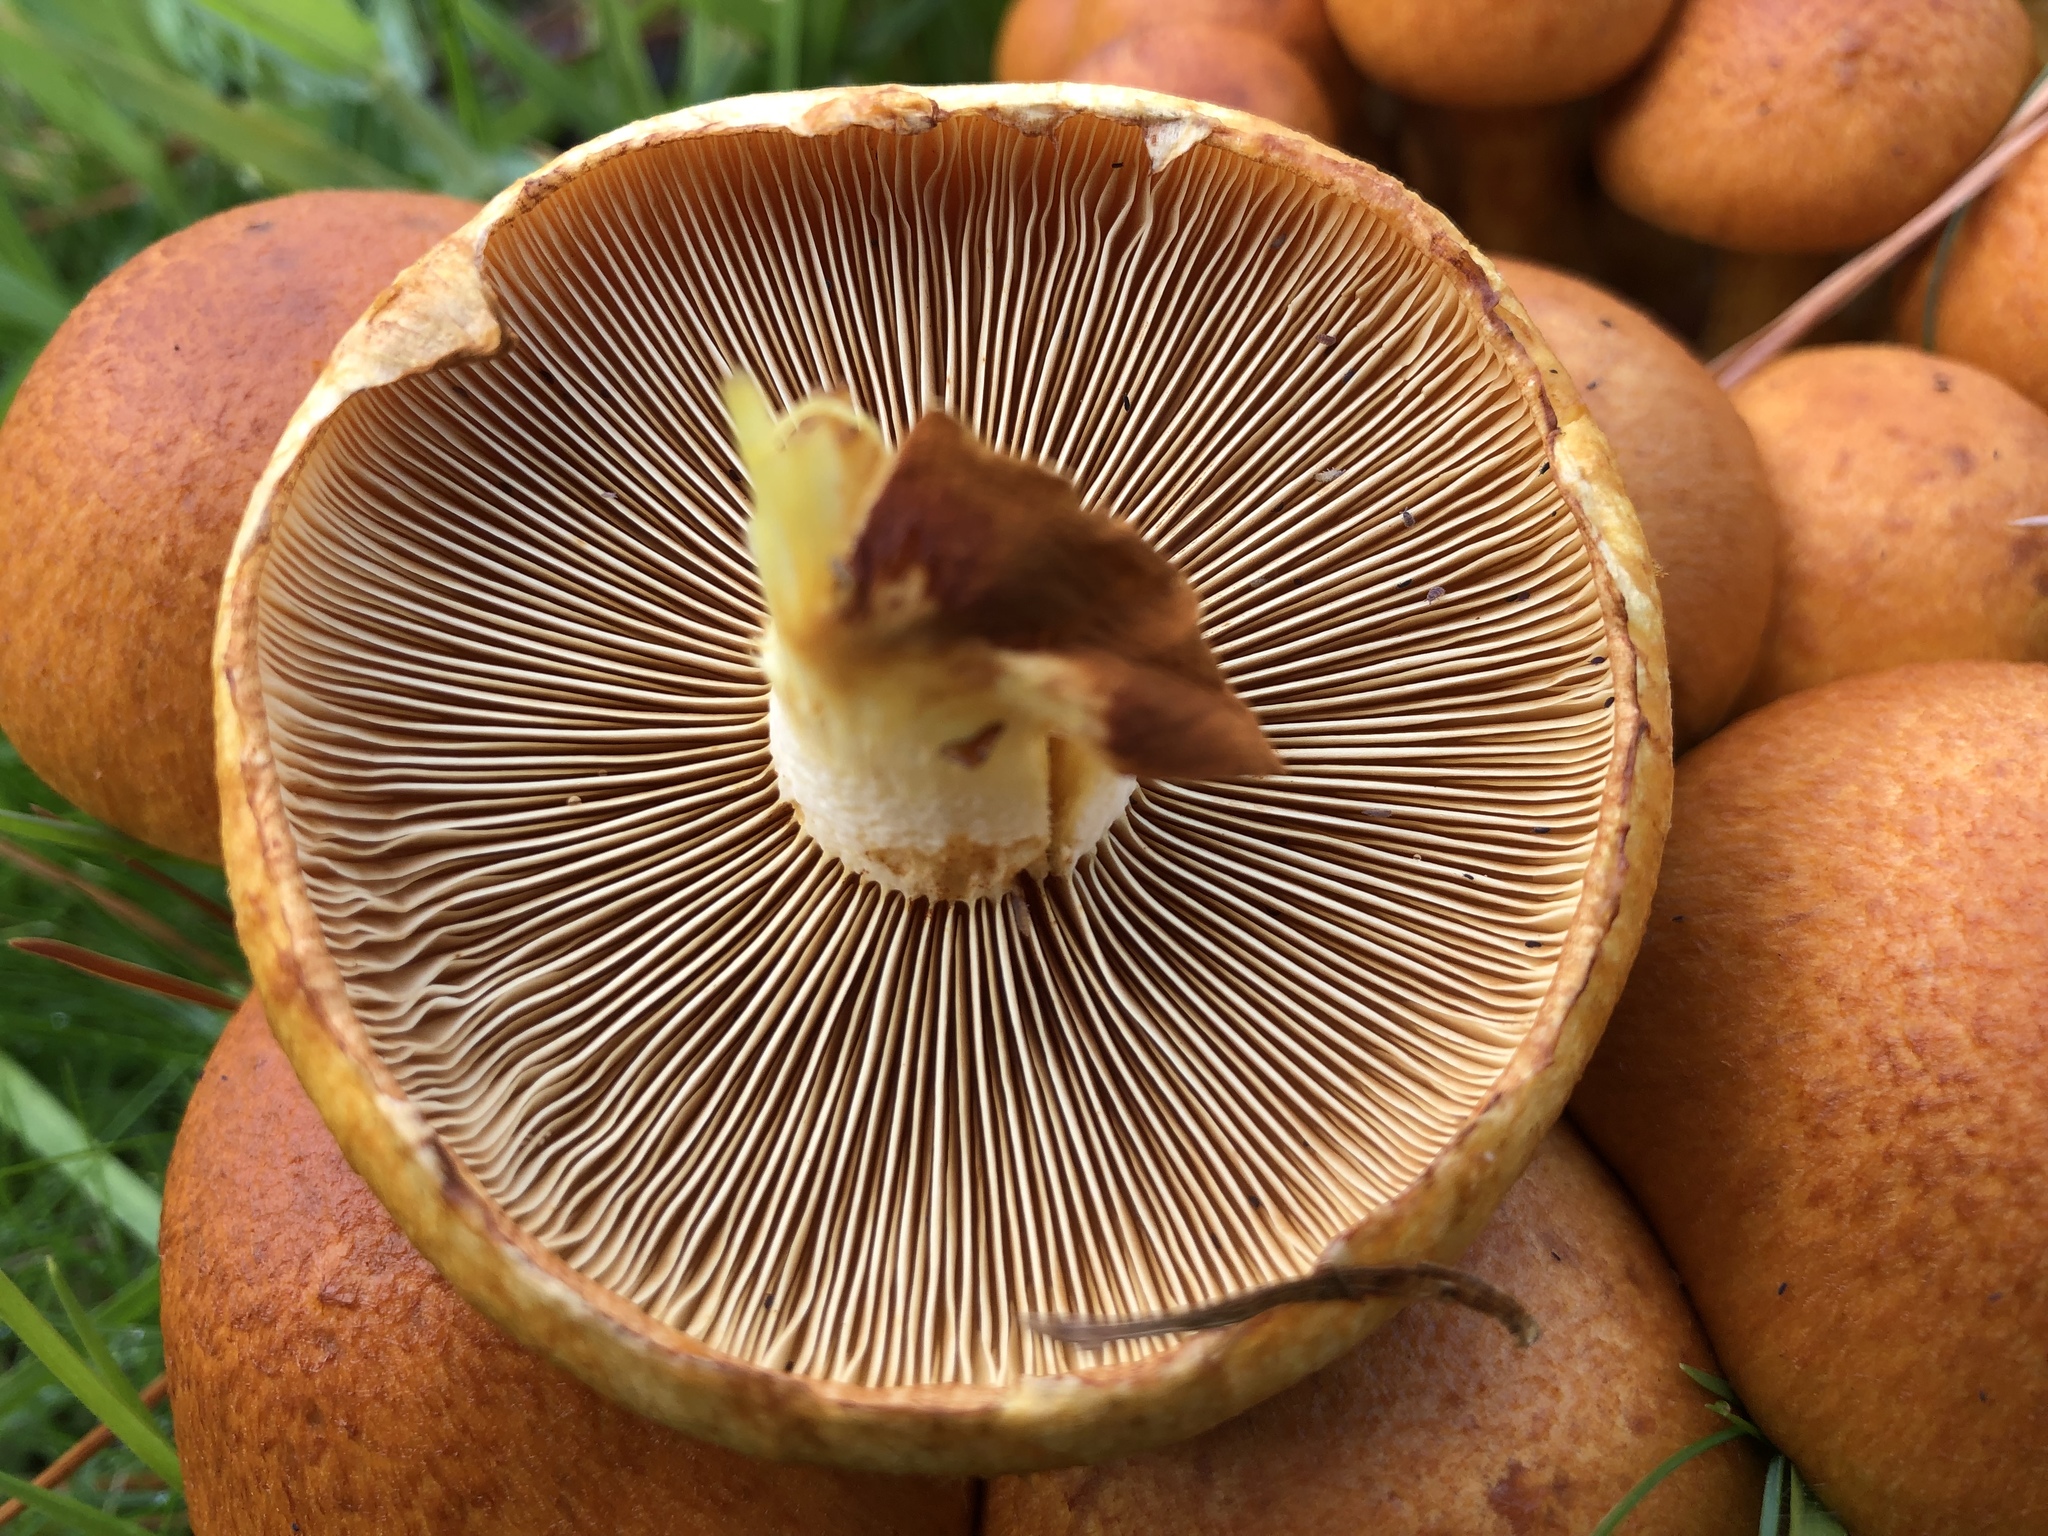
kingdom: Fungi
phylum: Basidiomycota
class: Agaricomycetes
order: Agaricales
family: Hymenogastraceae
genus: Gymnopilus
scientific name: Gymnopilus junonius
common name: Spectacular rustgill
